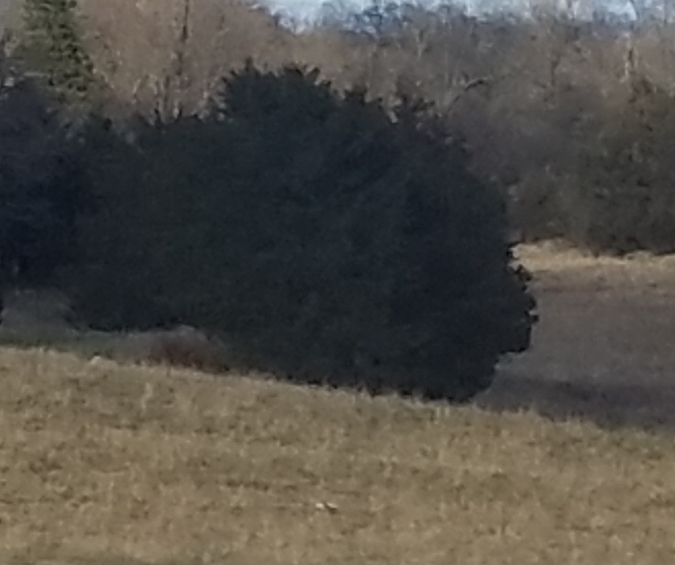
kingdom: Plantae
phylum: Tracheophyta
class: Pinopsida
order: Pinales
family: Cupressaceae
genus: Juniperus
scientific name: Juniperus virginiana
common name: Red juniper
